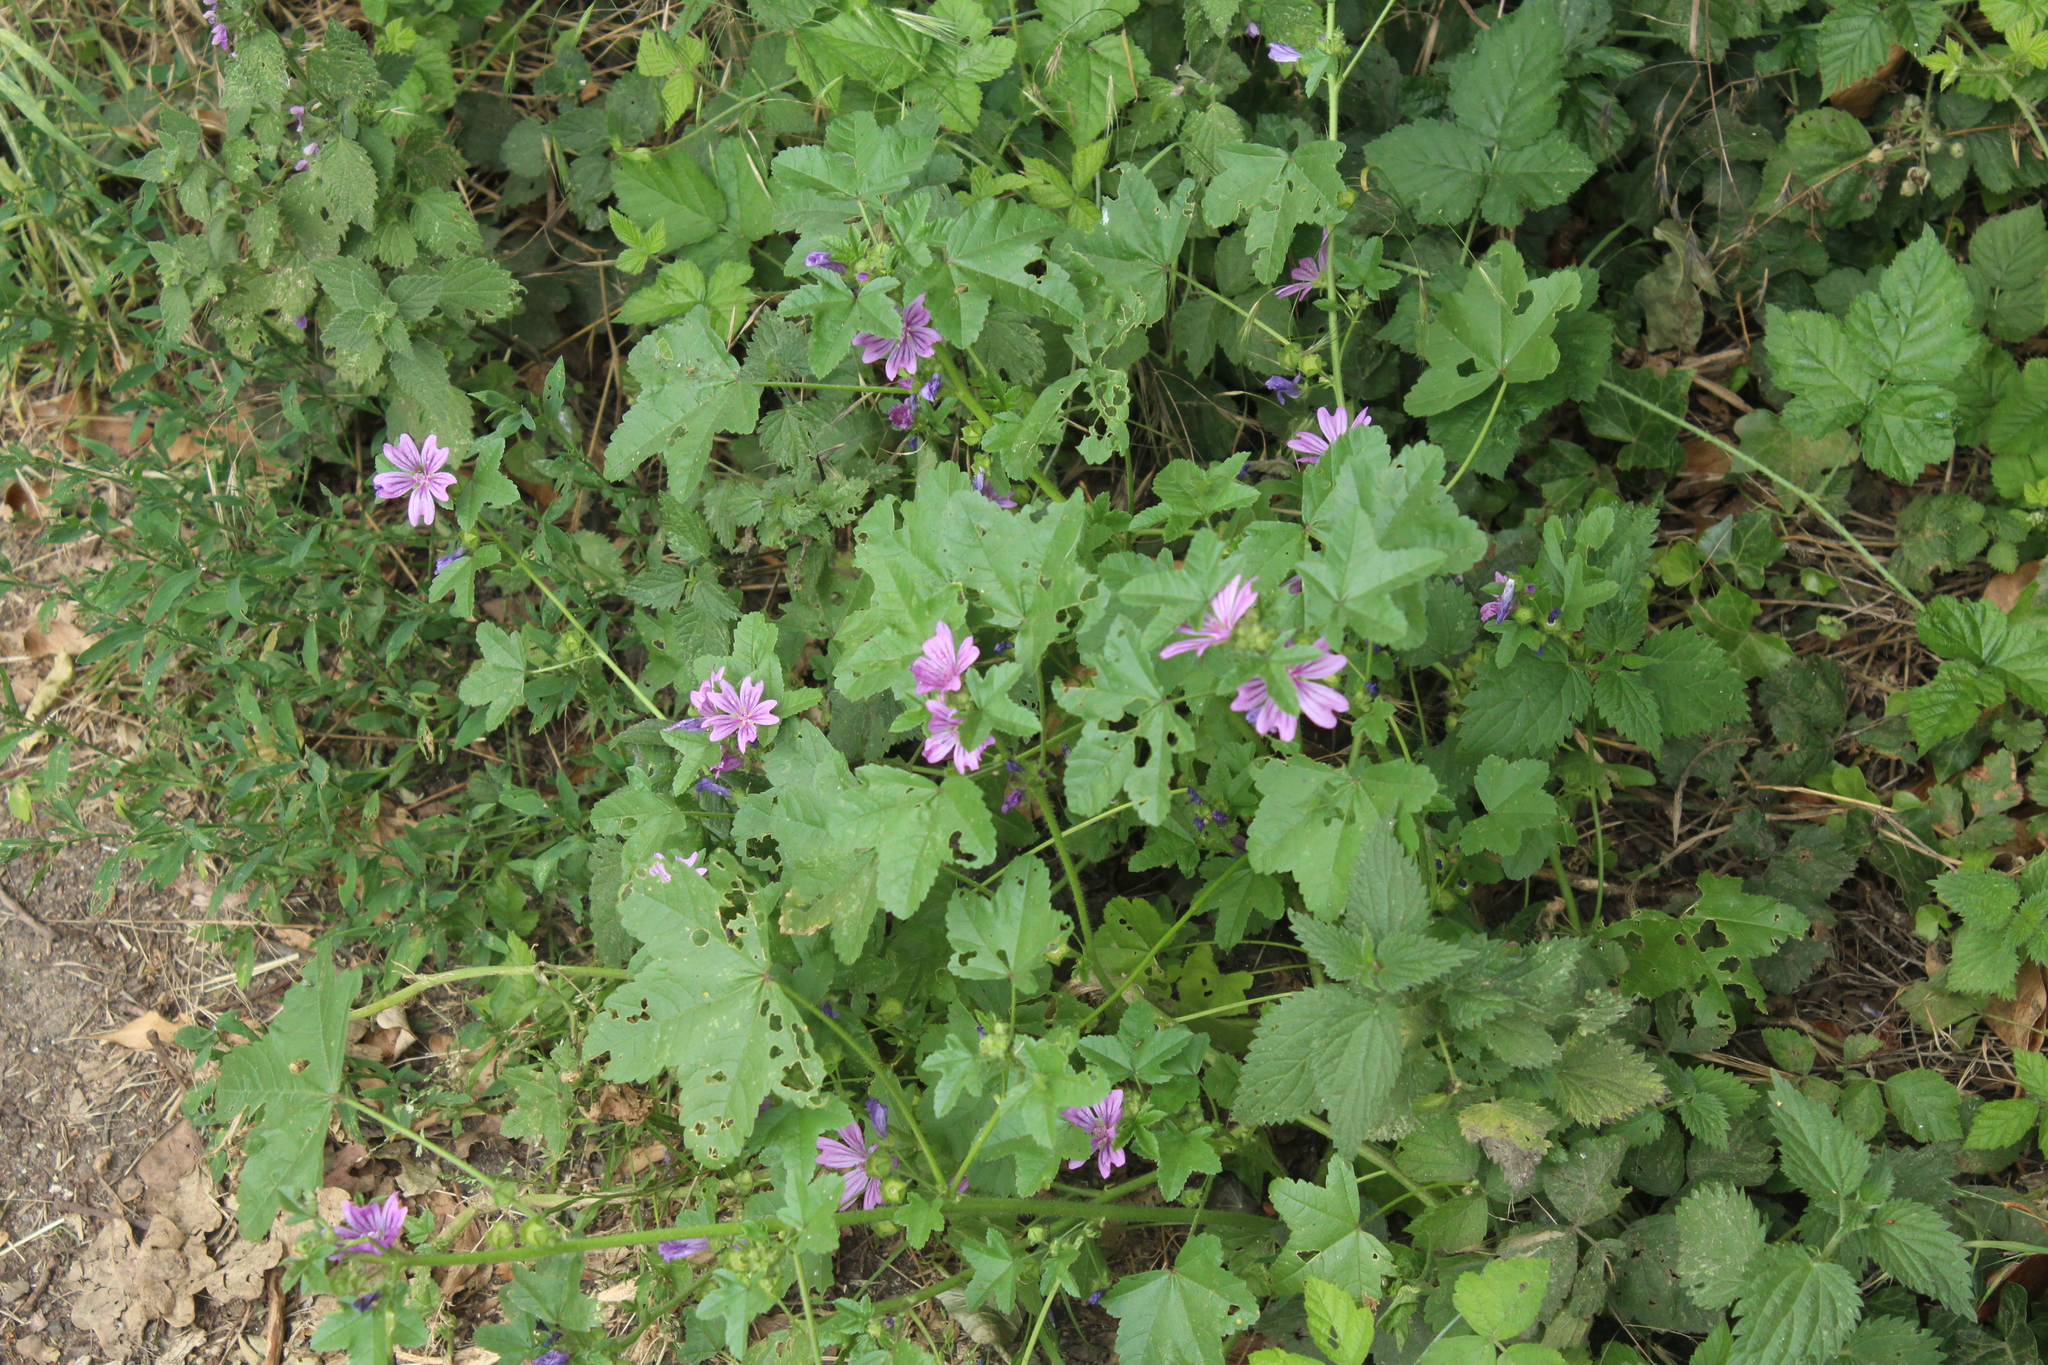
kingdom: Plantae
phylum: Tracheophyta
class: Magnoliopsida
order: Malvales
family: Malvaceae
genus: Malva
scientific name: Malva sylvestris
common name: Common mallow
